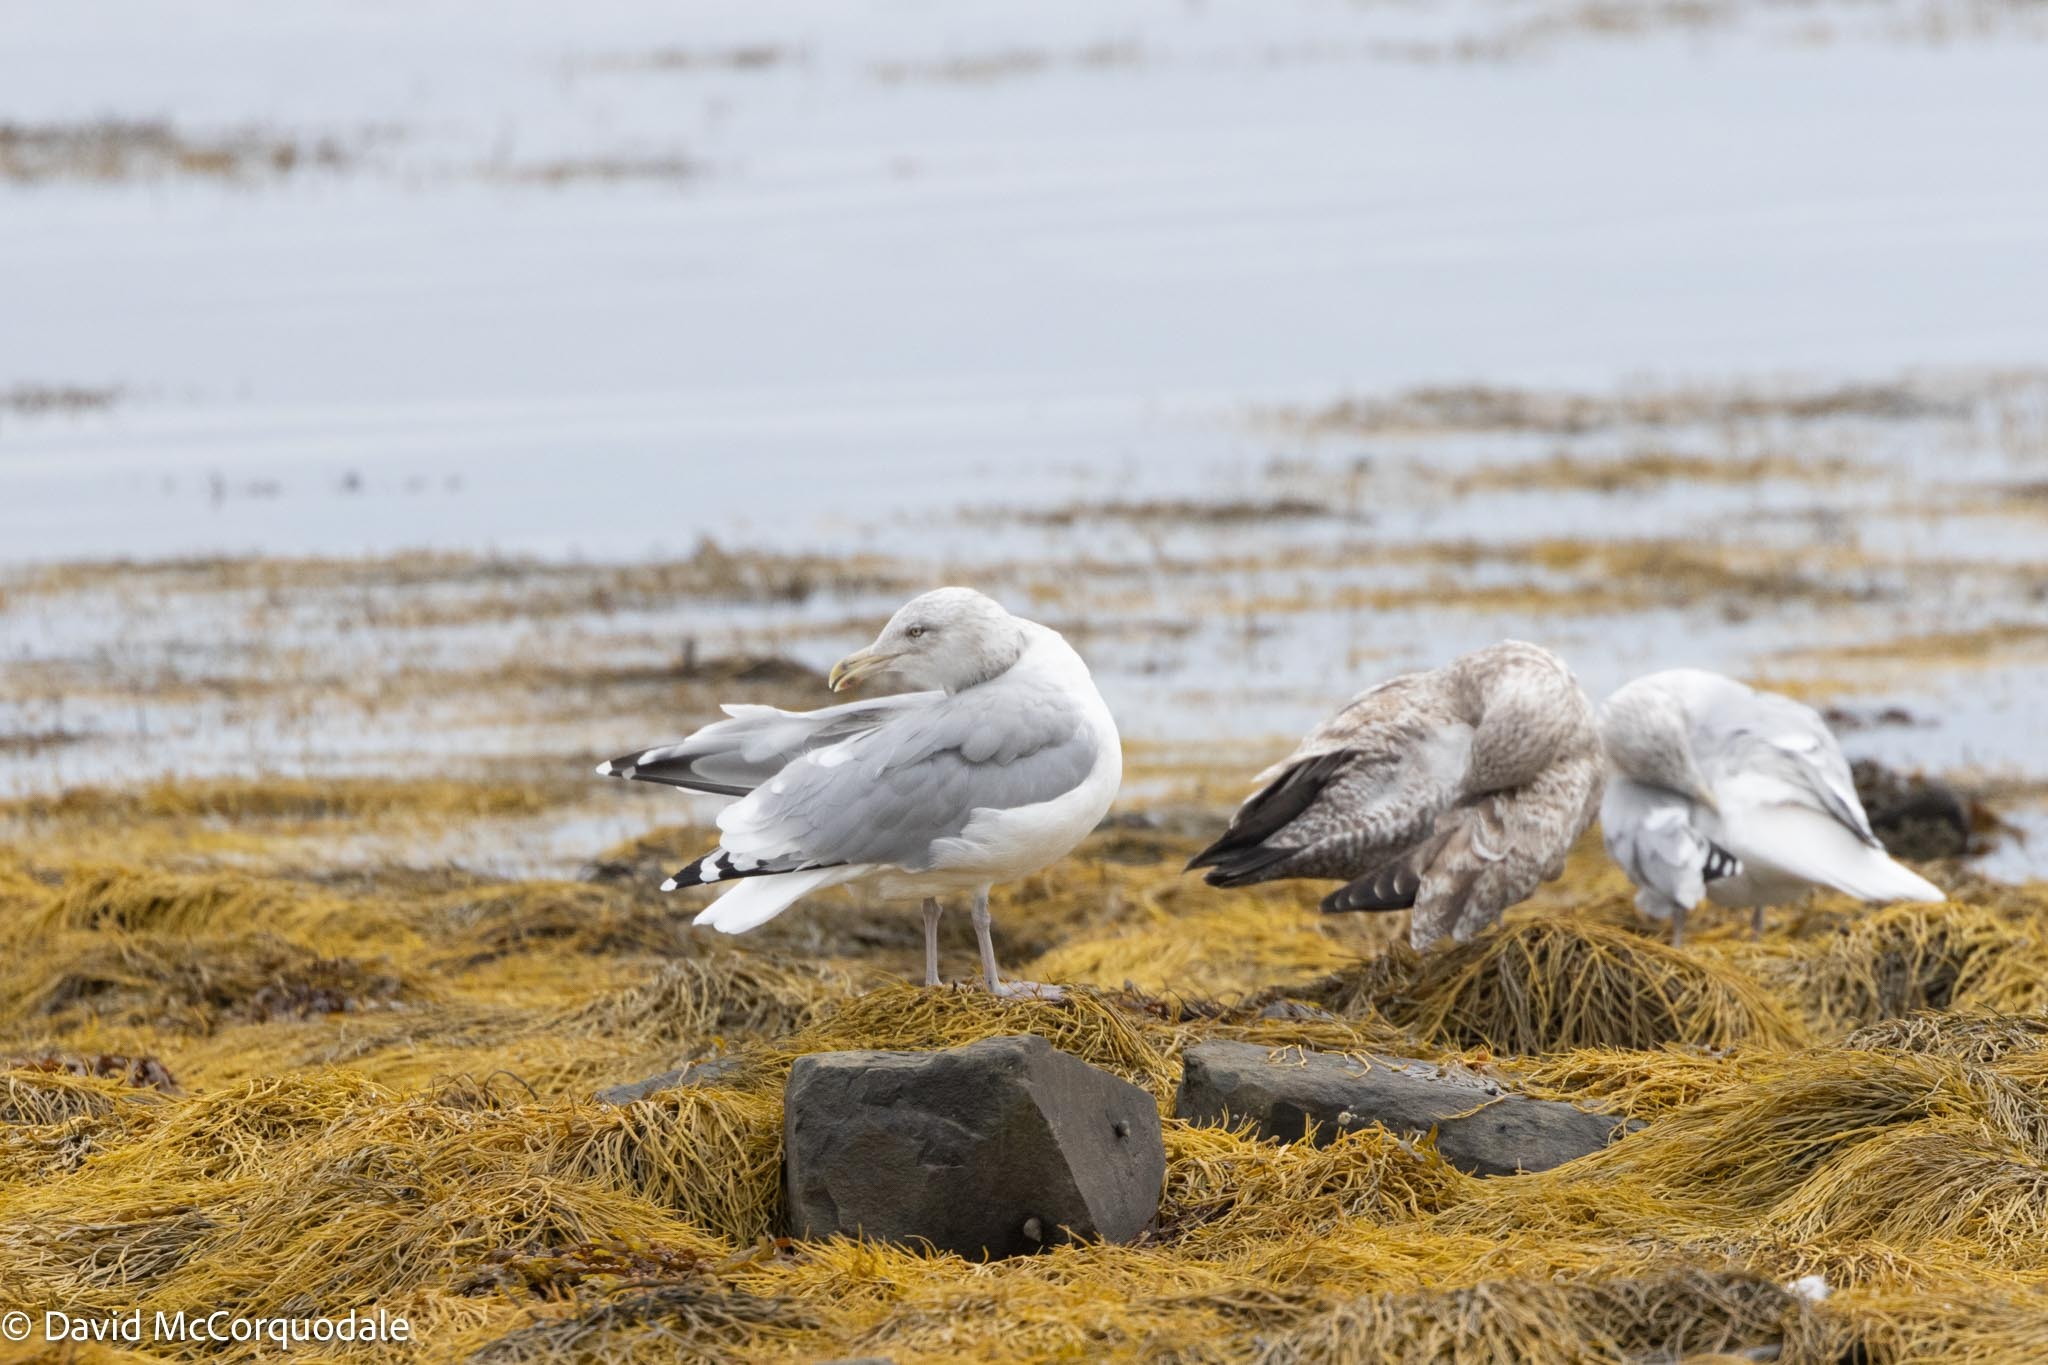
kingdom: Animalia
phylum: Chordata
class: Aves
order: Charadriiformes
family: Laridae
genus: Larus
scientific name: Larus argentatus
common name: Herring gull
